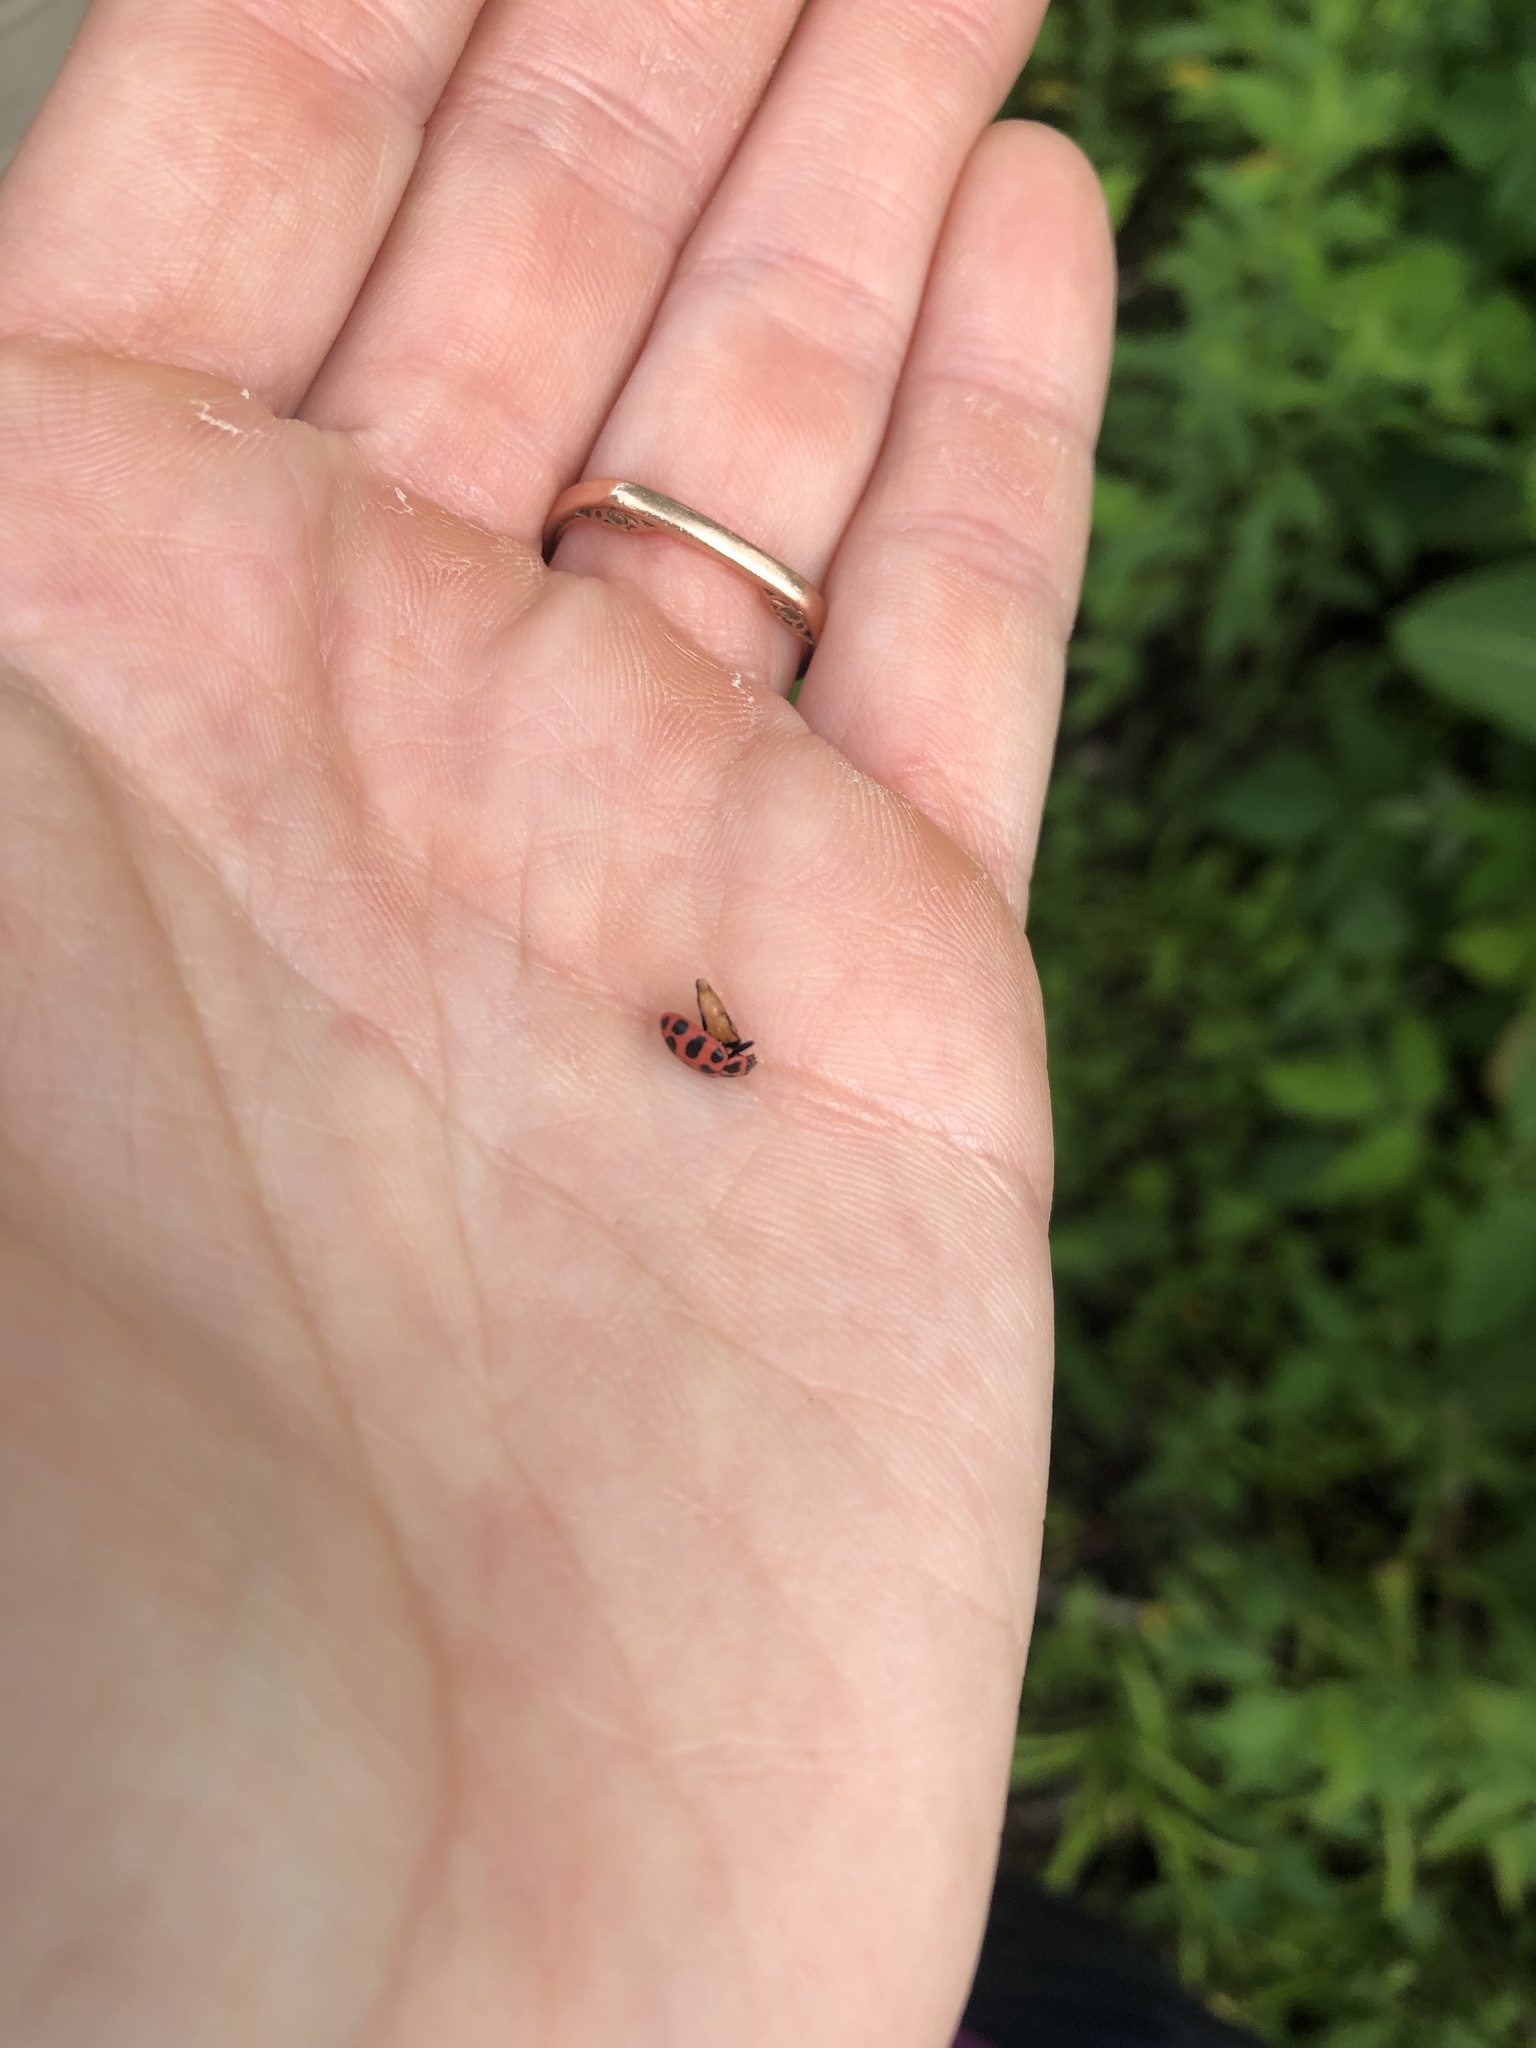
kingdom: Animalia
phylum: Arthropoda
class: Insecta
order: Coleoptera
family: Coccinellidae
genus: Coleomegilla
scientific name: Coleomegilla maculata
